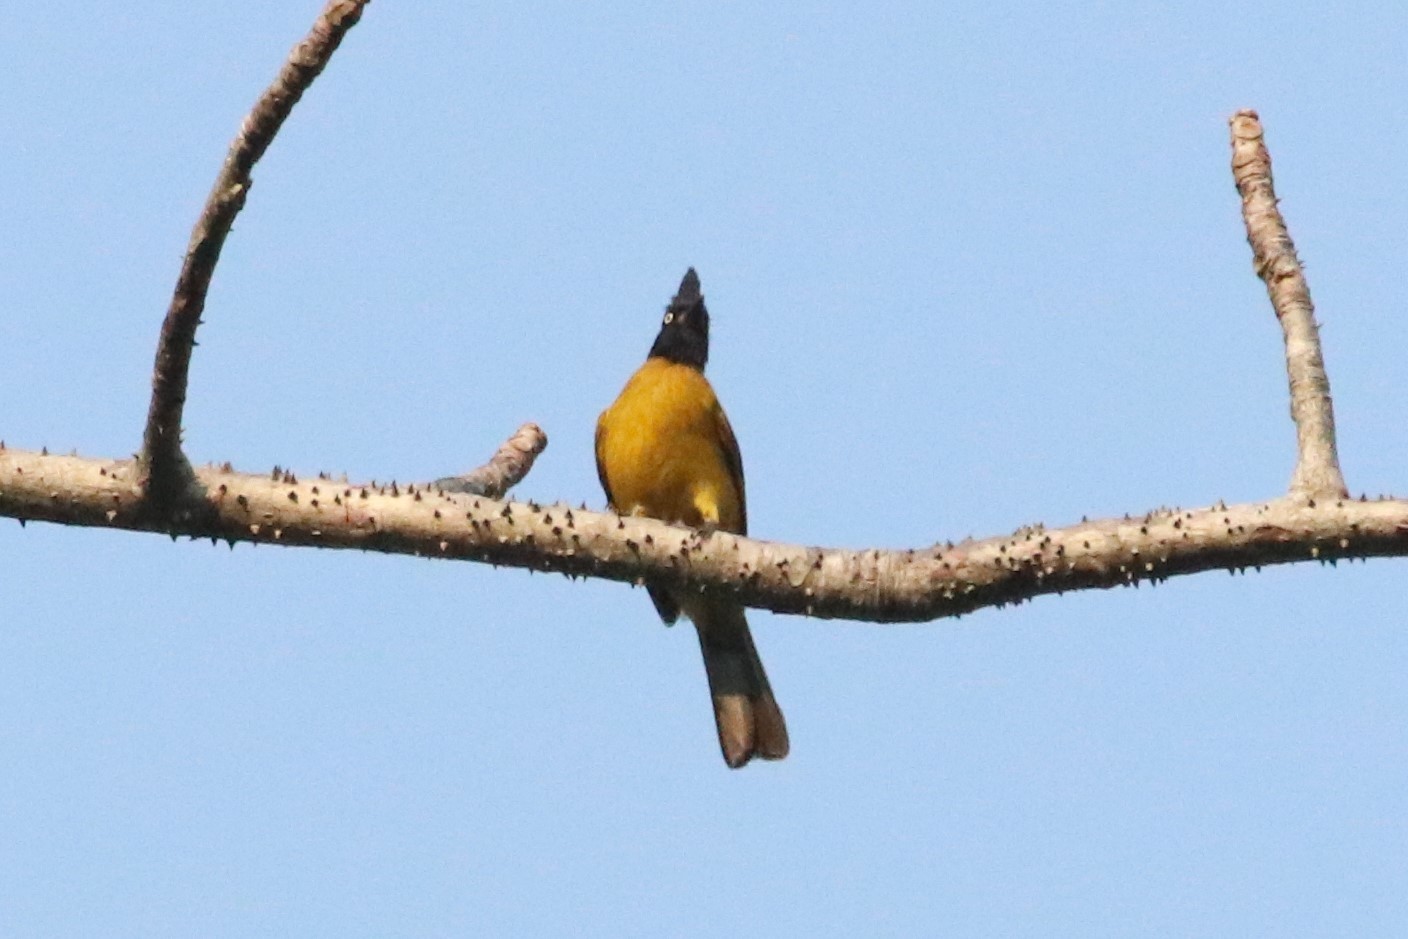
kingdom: Animalia
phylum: Chordata
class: Aves
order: Passeriformes
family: Pycnonotidae
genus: Pycnonotus
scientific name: Pycnonotus flaviventris
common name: Black-crested bulbul
